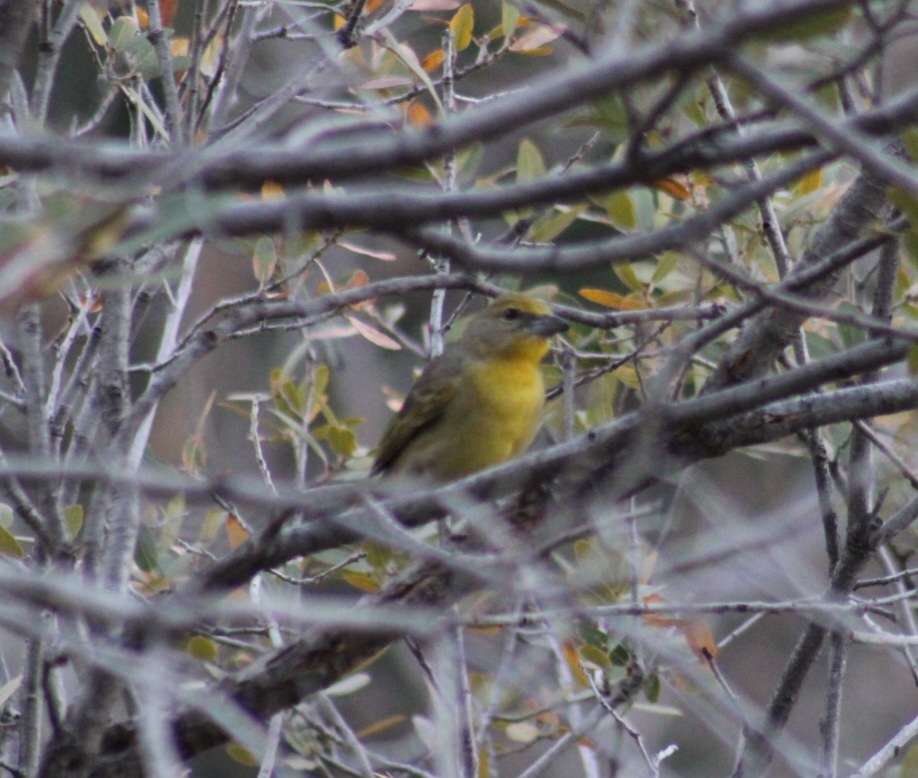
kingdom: Animalia
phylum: Chordata
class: Aves
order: Passeriformes
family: Cardinalidae
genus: Piranga
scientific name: Piranga flava
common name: Red tanager
